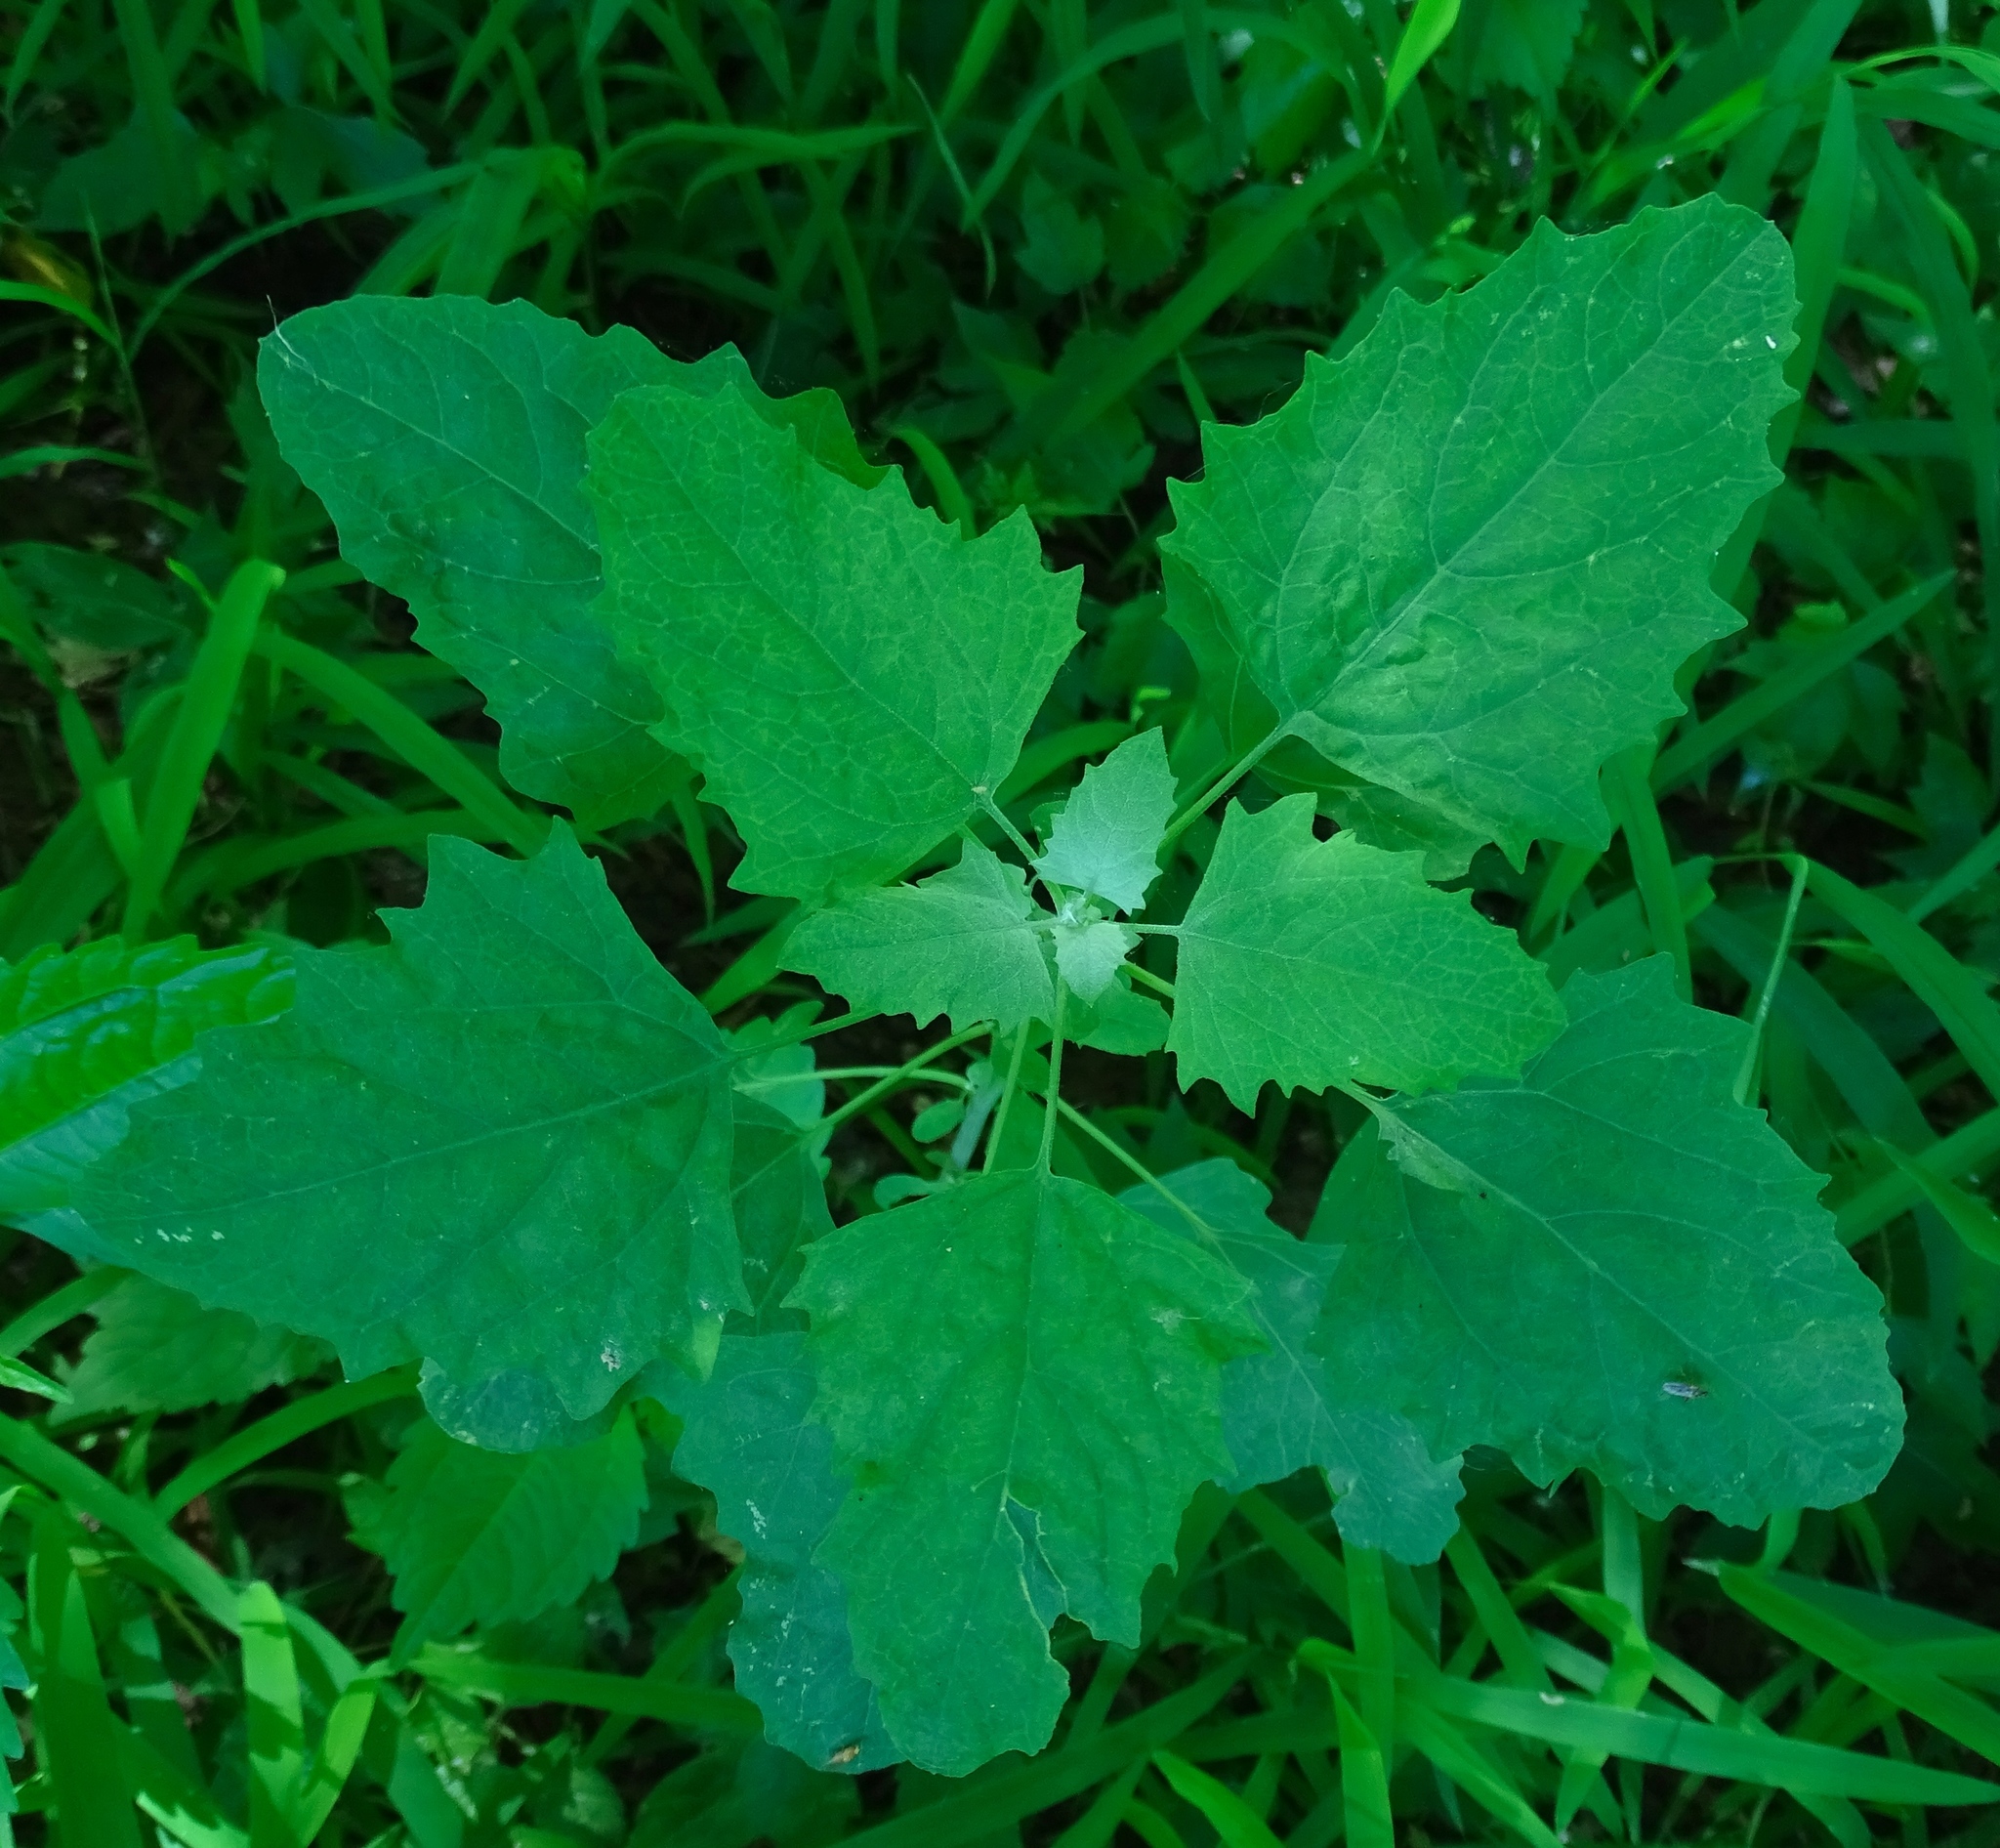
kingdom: Plantae
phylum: Tracheophyta
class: Magnoliopsida
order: Caryophyllales
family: Amaranthaceae
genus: Chenopodium
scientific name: Chenopodium album
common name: Fat-hen
